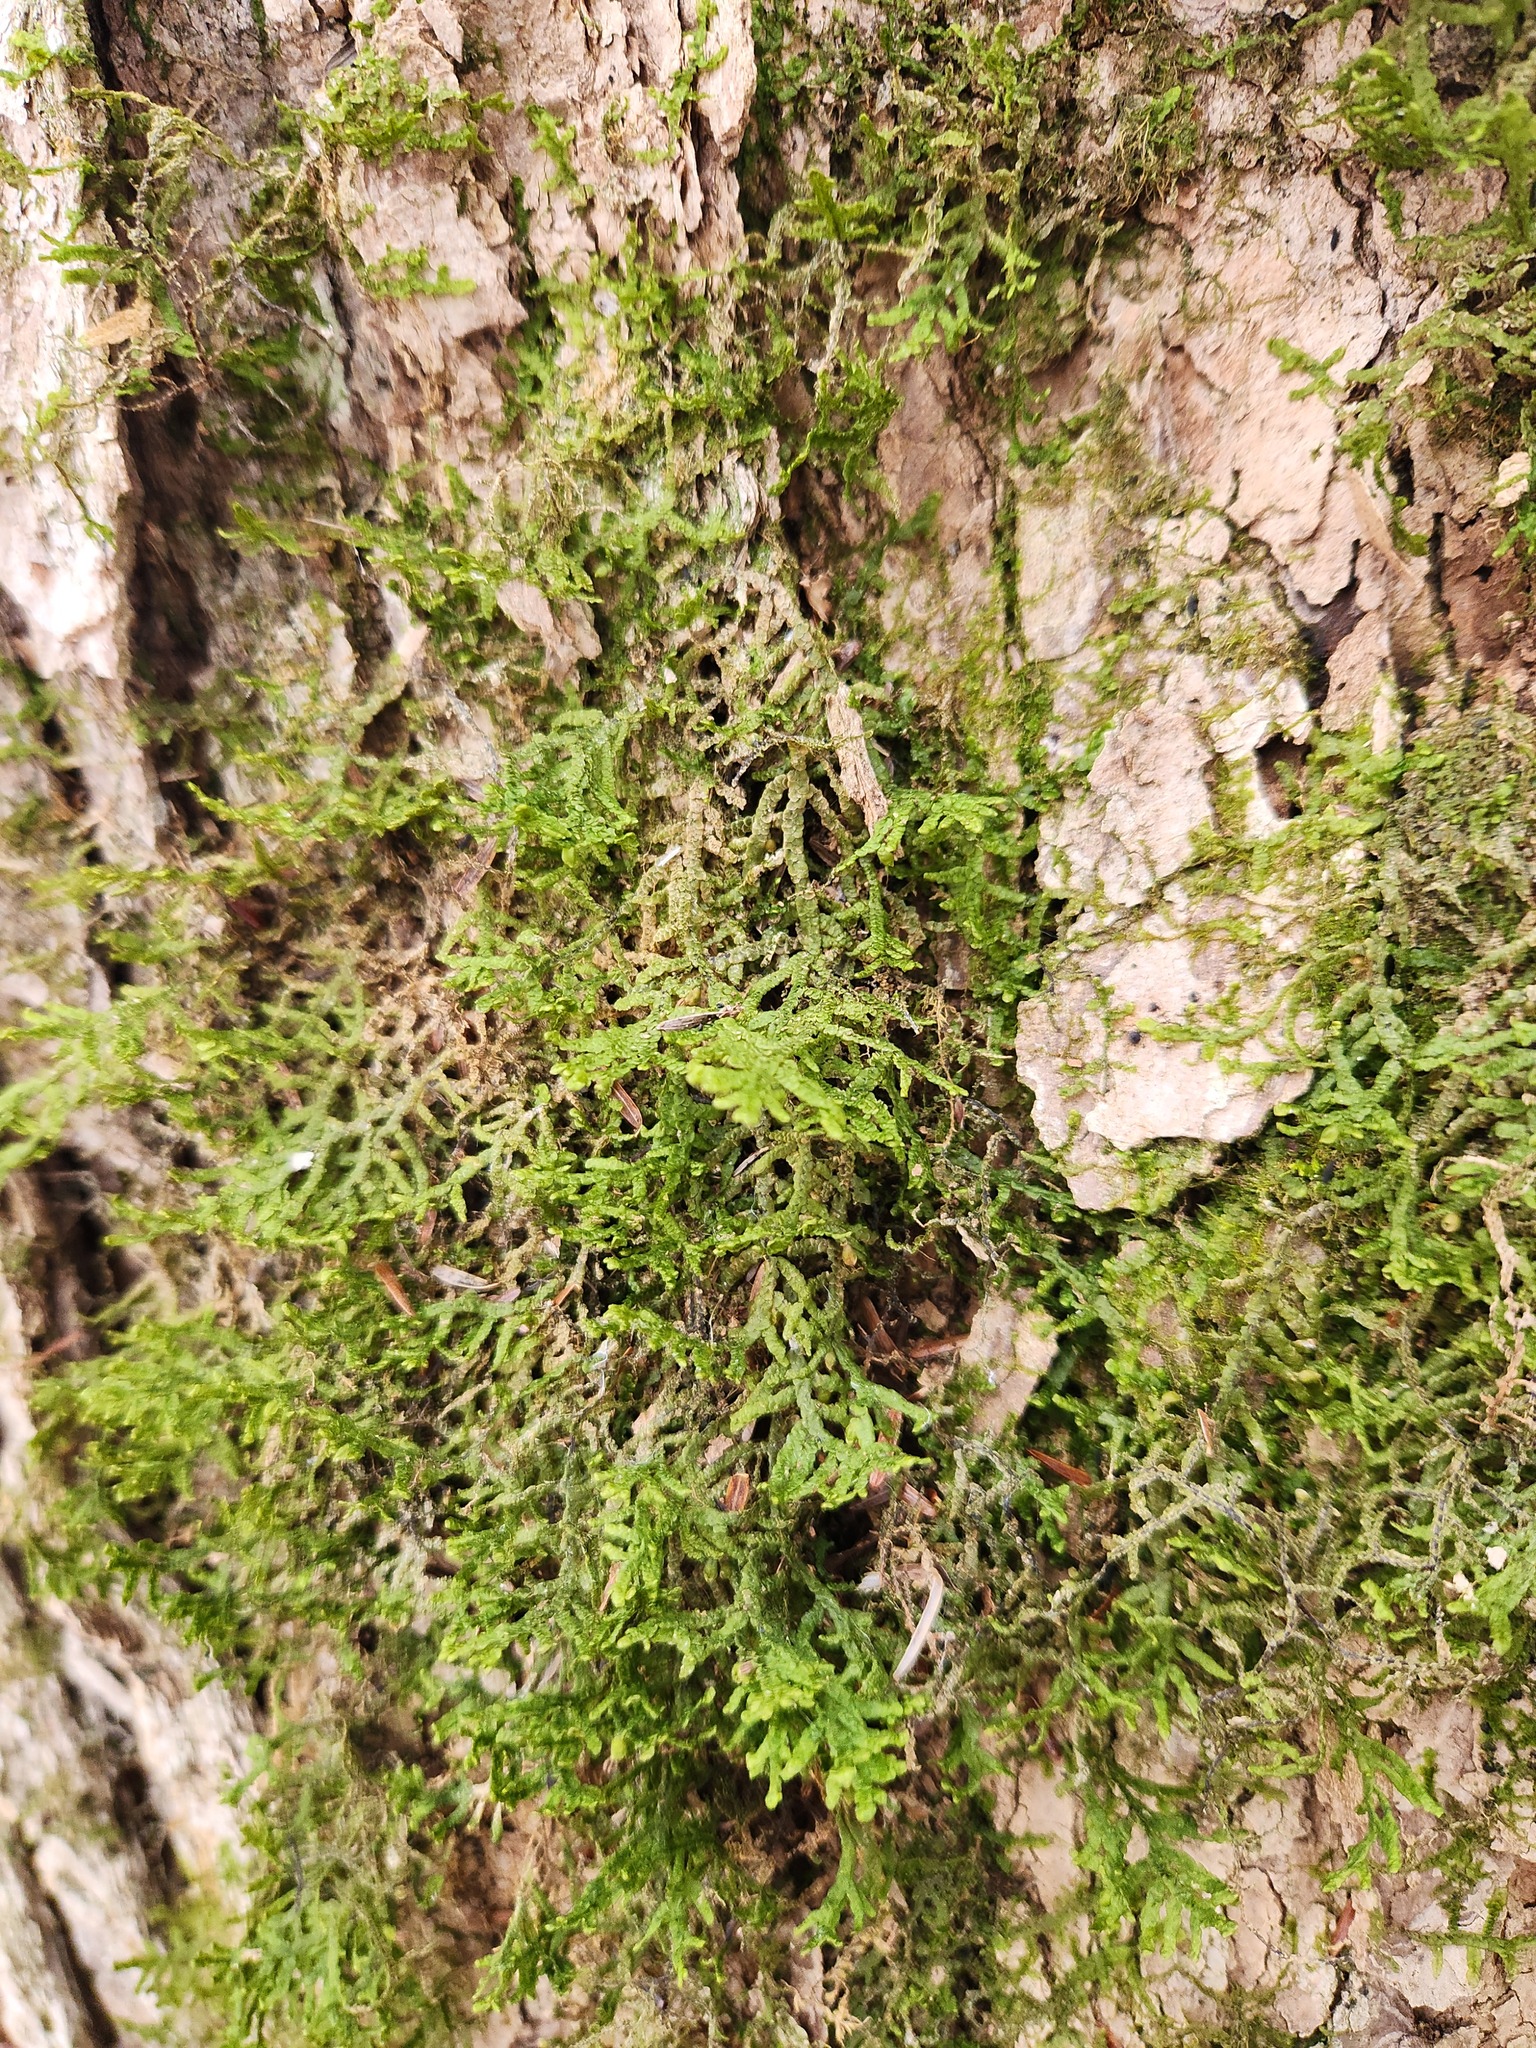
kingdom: Plantae
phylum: Marchantiophyta
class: Jungermanniopsida
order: Porellales
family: Porellaceae
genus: Porella
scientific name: Porella platyphylla
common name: Wall scalewort
